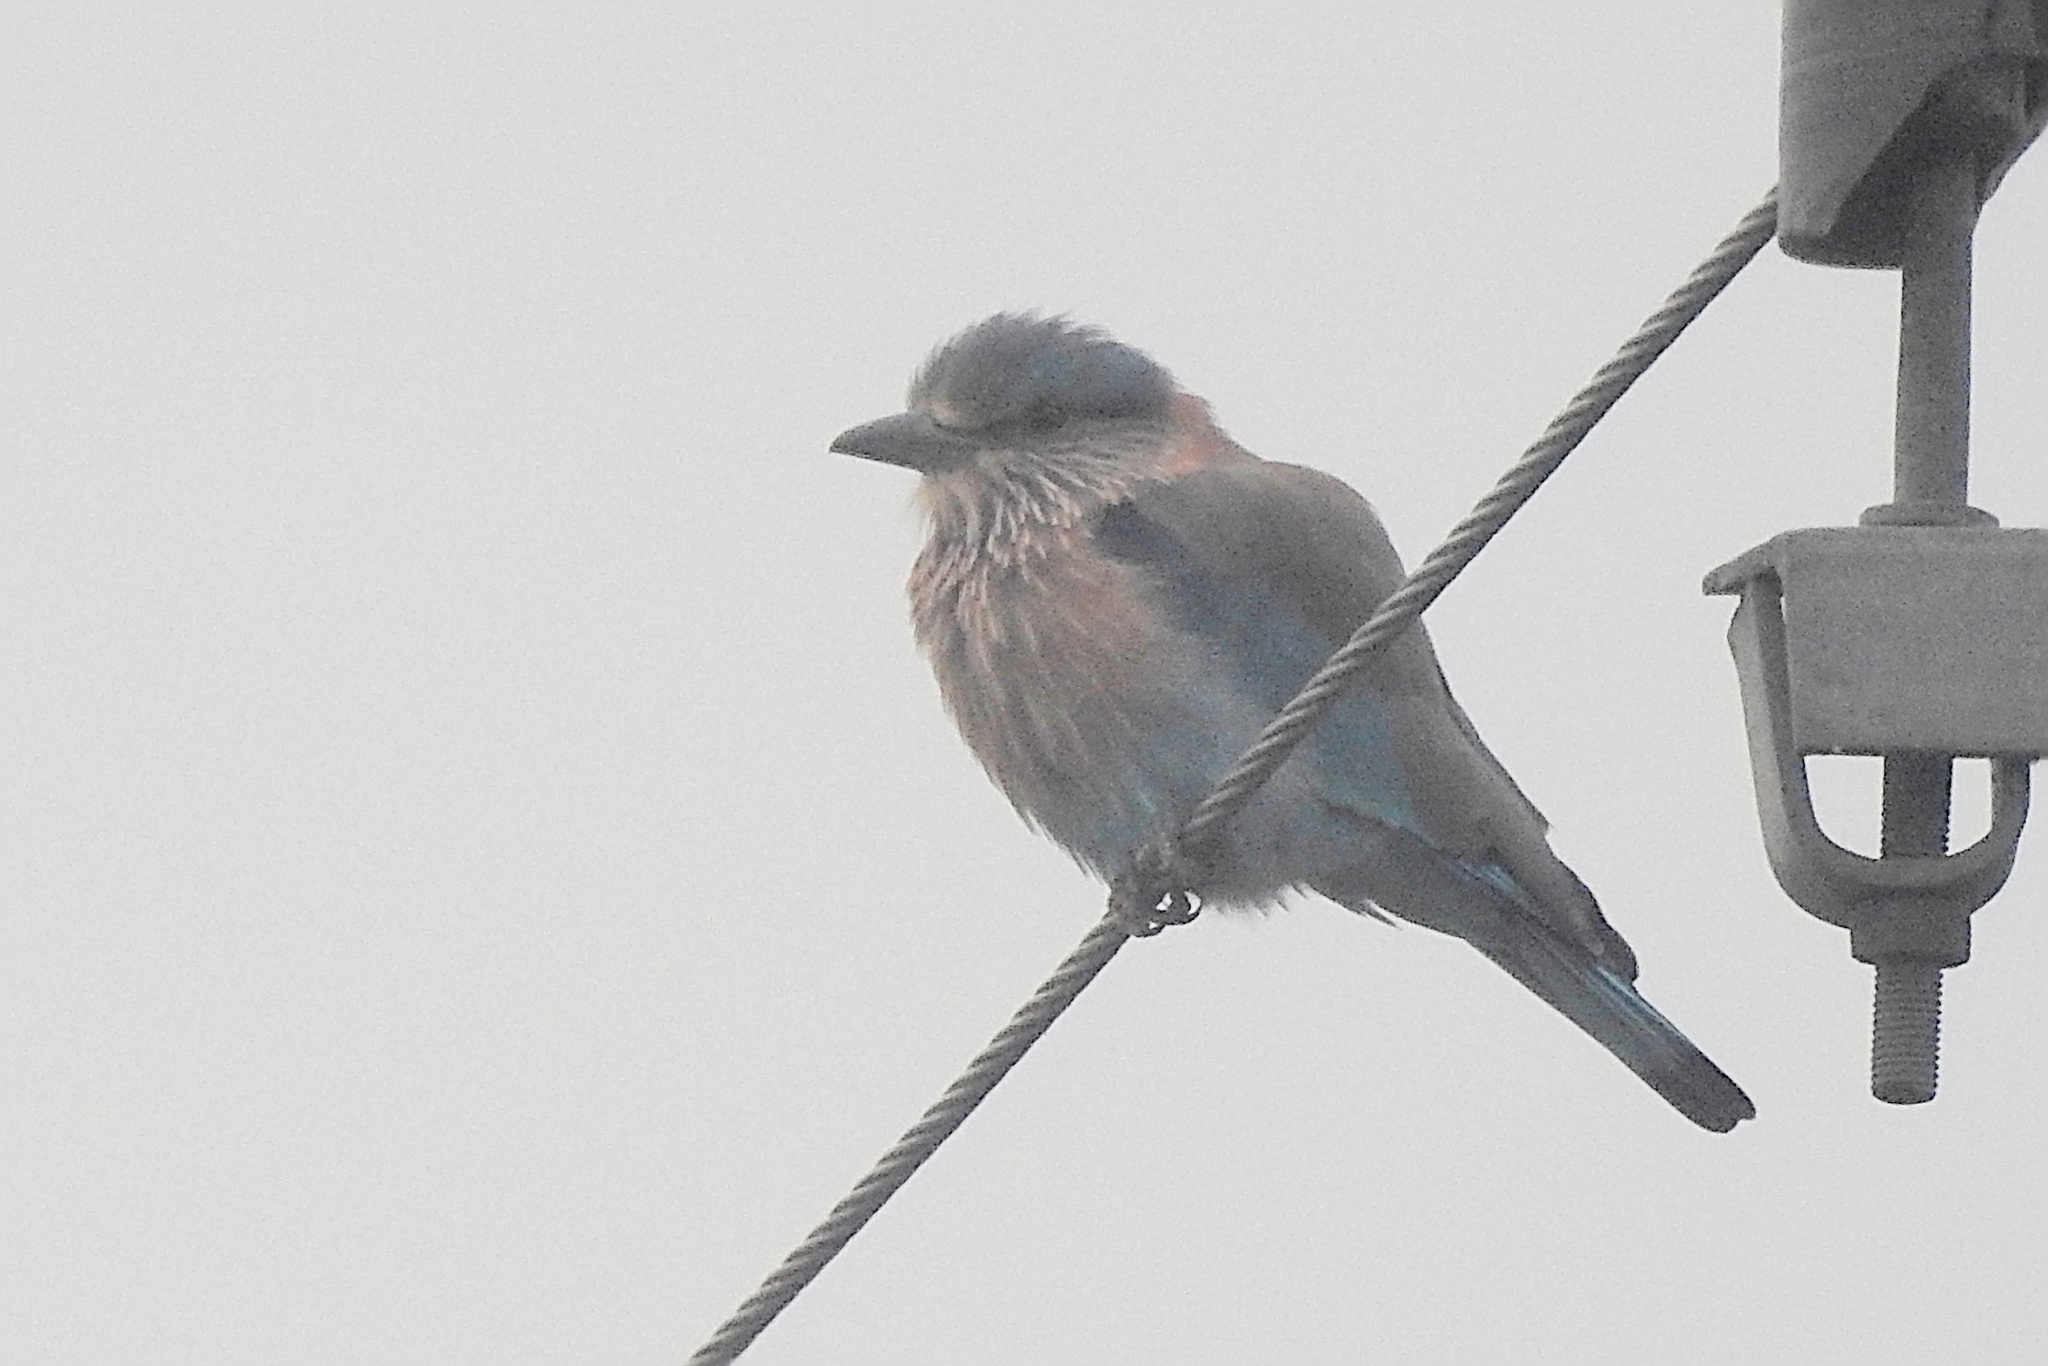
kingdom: Animalia
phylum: Chordata
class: Aves
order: Coraciiformes
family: Coraciidae
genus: Coracias
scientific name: Coracias benghalensis
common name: Indian roller
